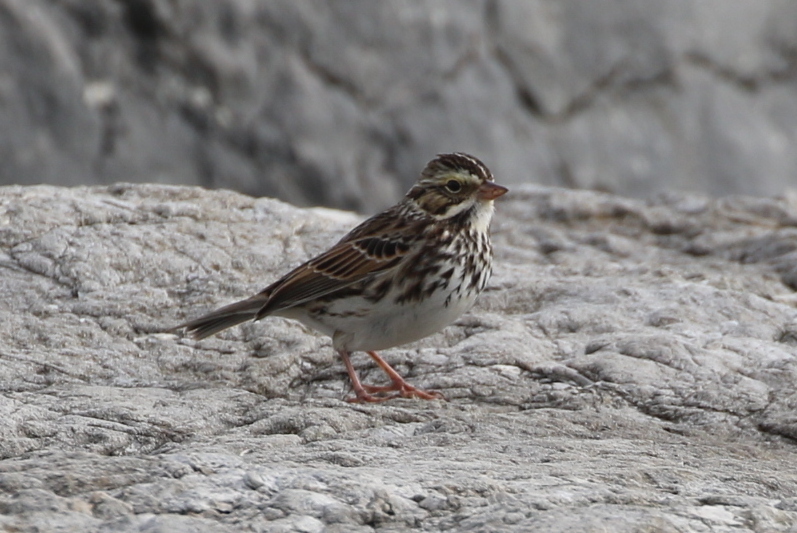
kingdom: Animalia
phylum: Chordata
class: Aves
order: Passeriformes
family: Passerellidae
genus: Passerculus
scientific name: Passerculus sandwichensis
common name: Savannah sparrow
